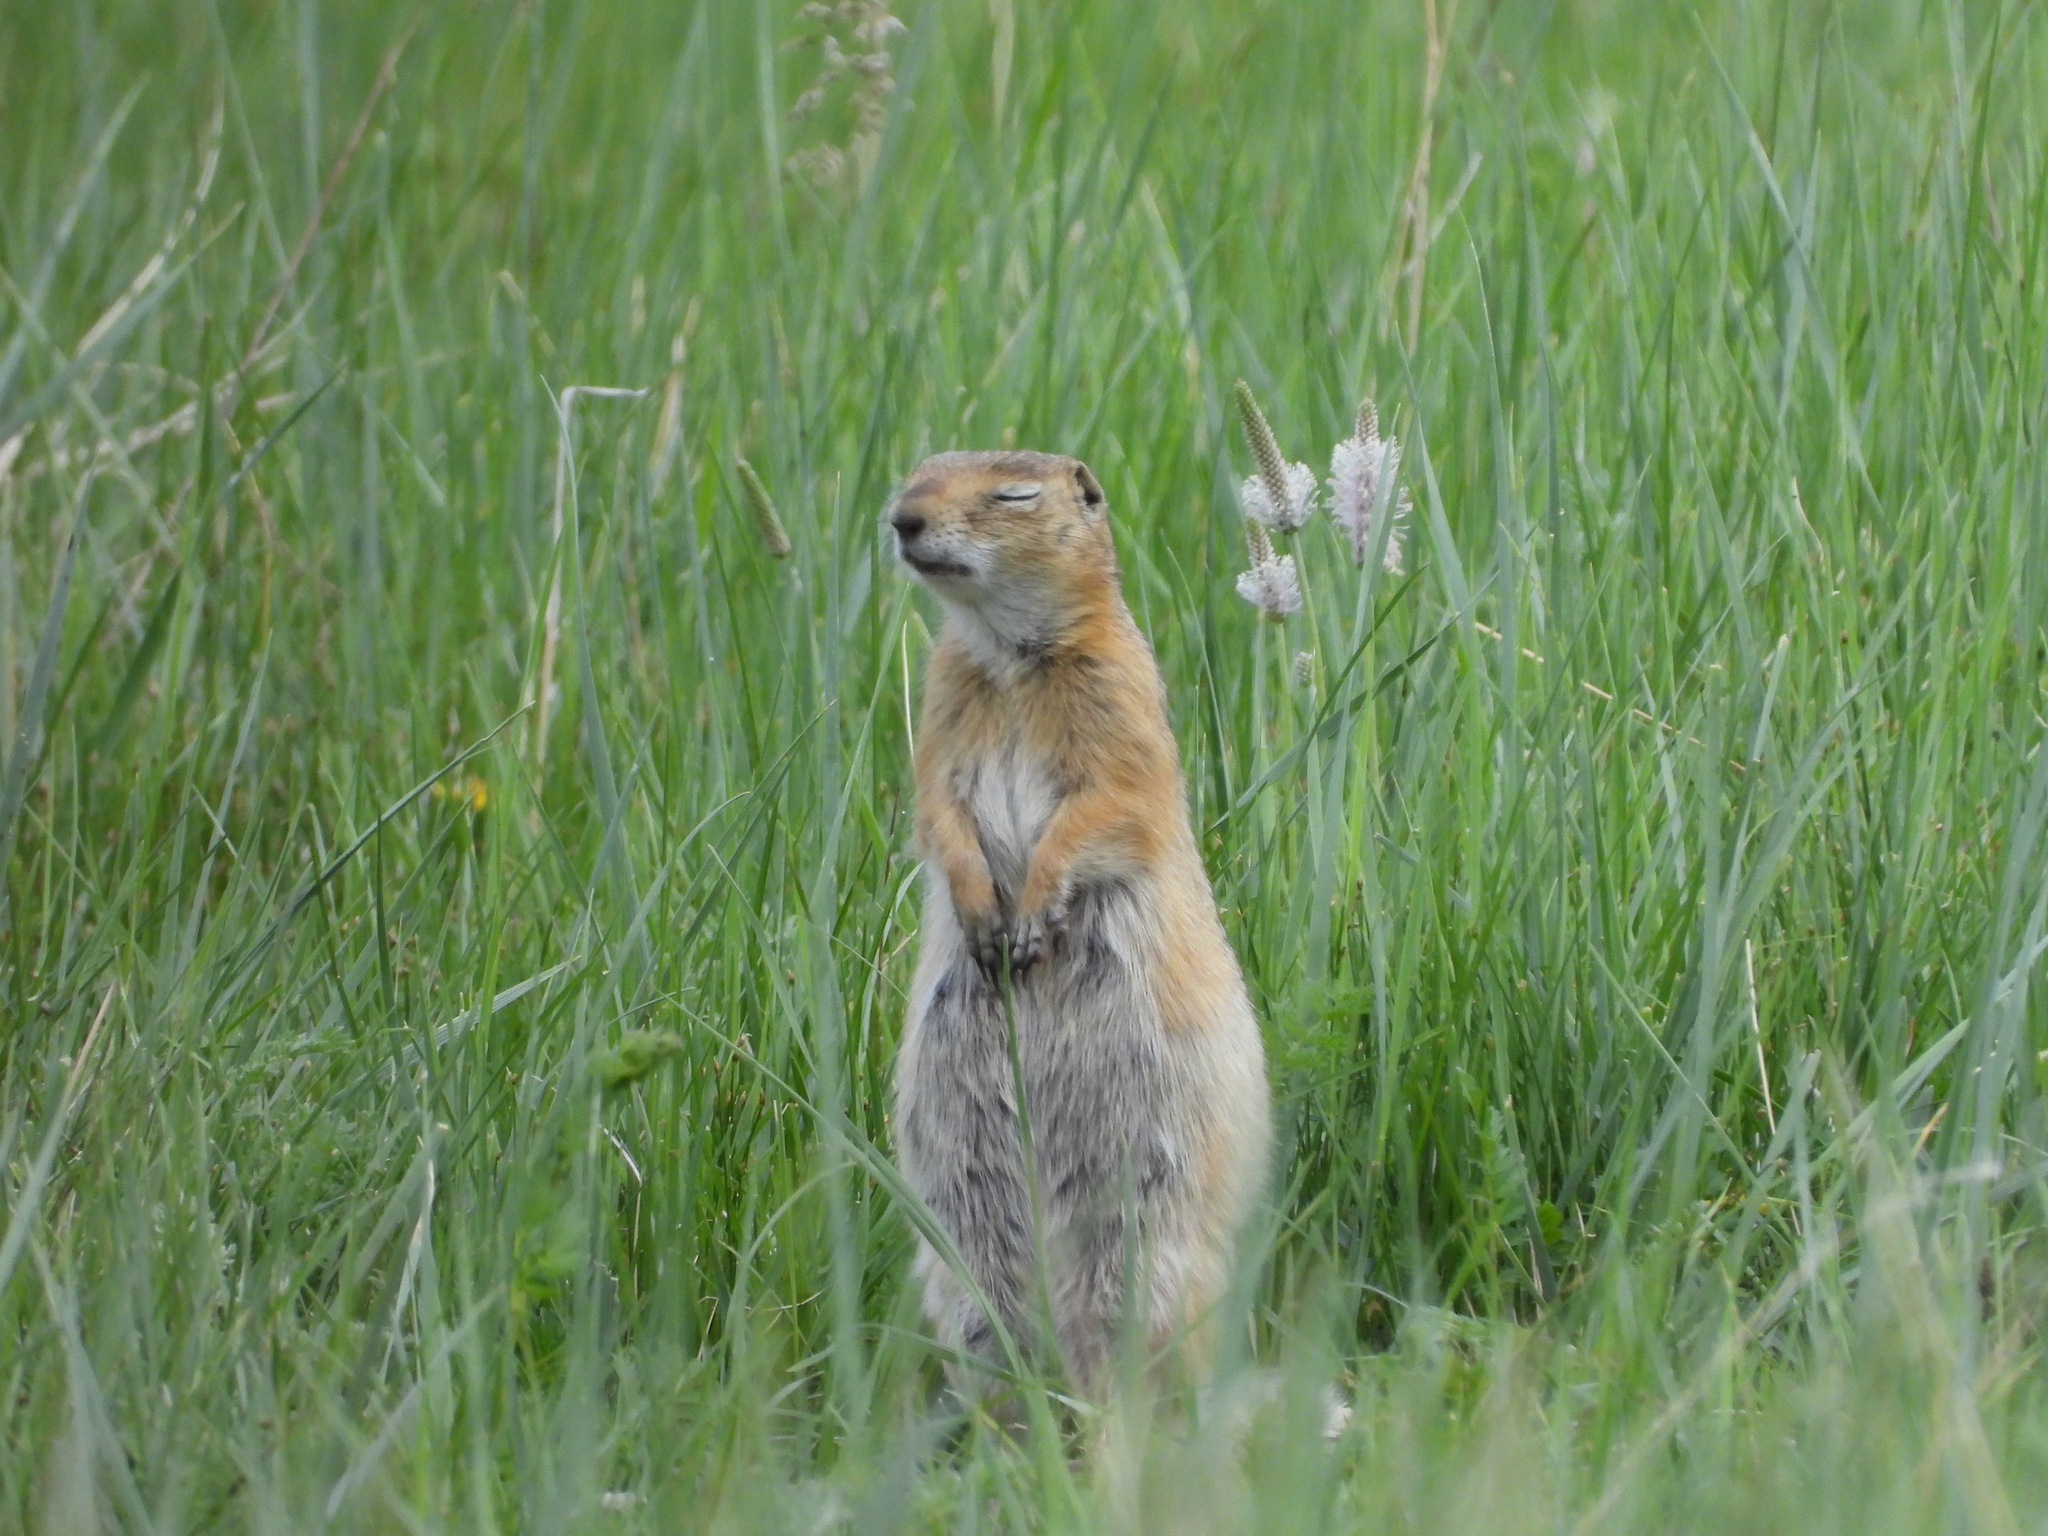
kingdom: Animalia
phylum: Chordata
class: Mammalia
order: Rodentia
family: Sciuridae
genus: Urocitellus
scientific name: Urocitellus undulatus
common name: Long-tailed ground squirrel
